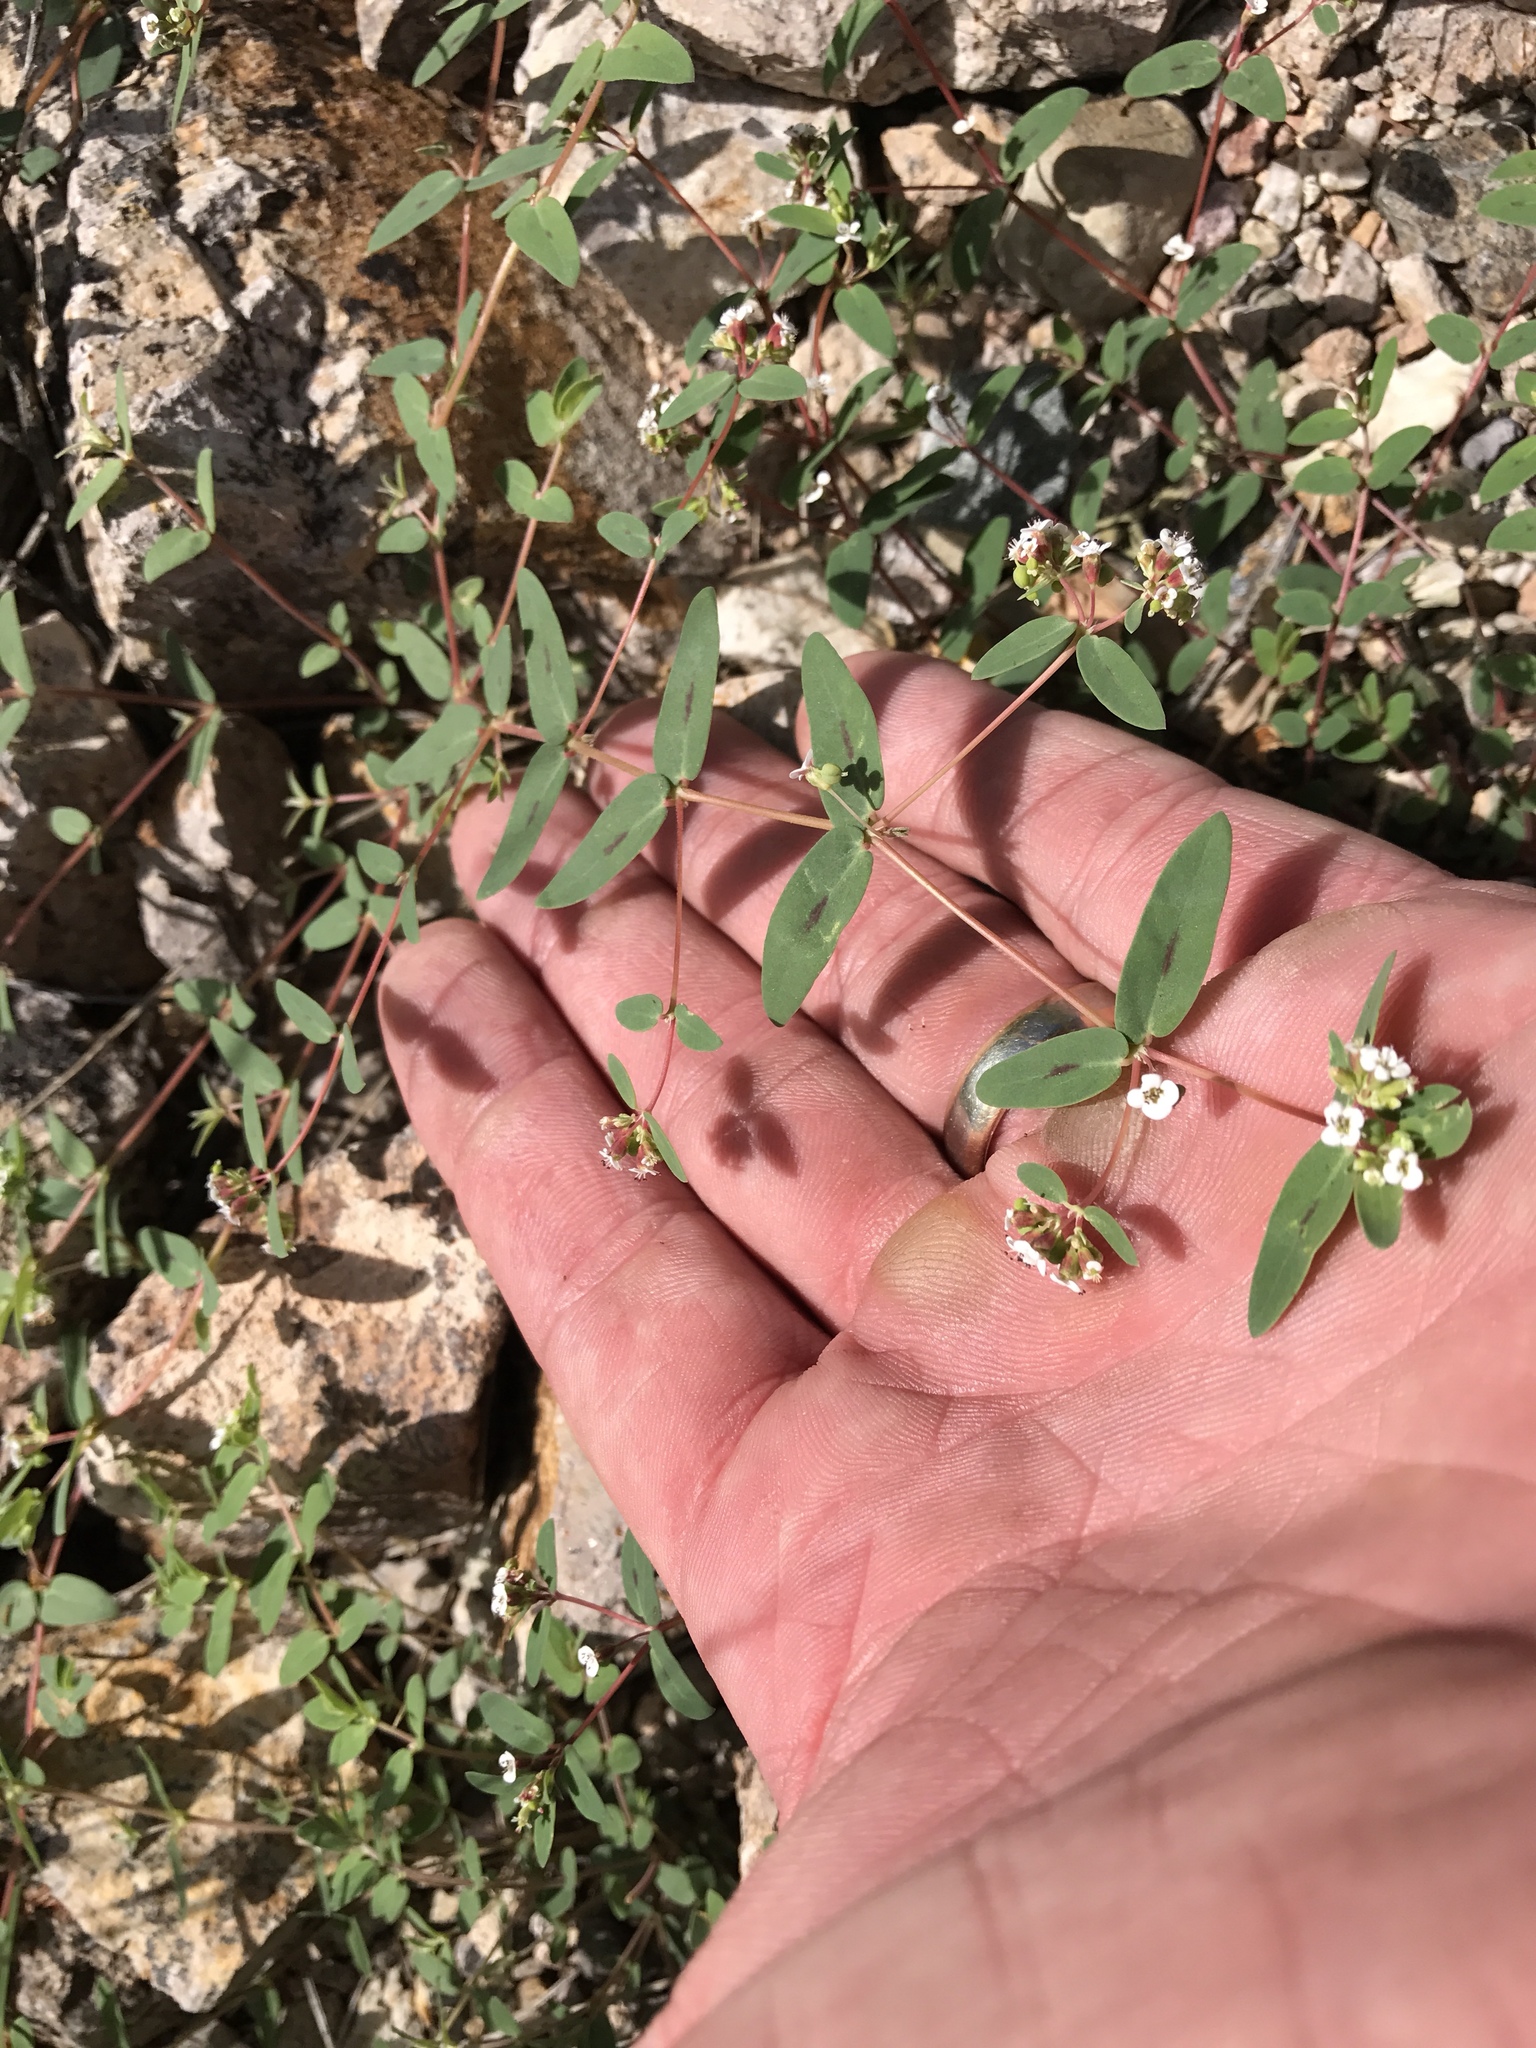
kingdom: Plantae
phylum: Tracheophyta
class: Magnoliopsida
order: Malpighiales
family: Euphorbiaceae
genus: Euphorbia
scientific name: Euphorbia capitellata
